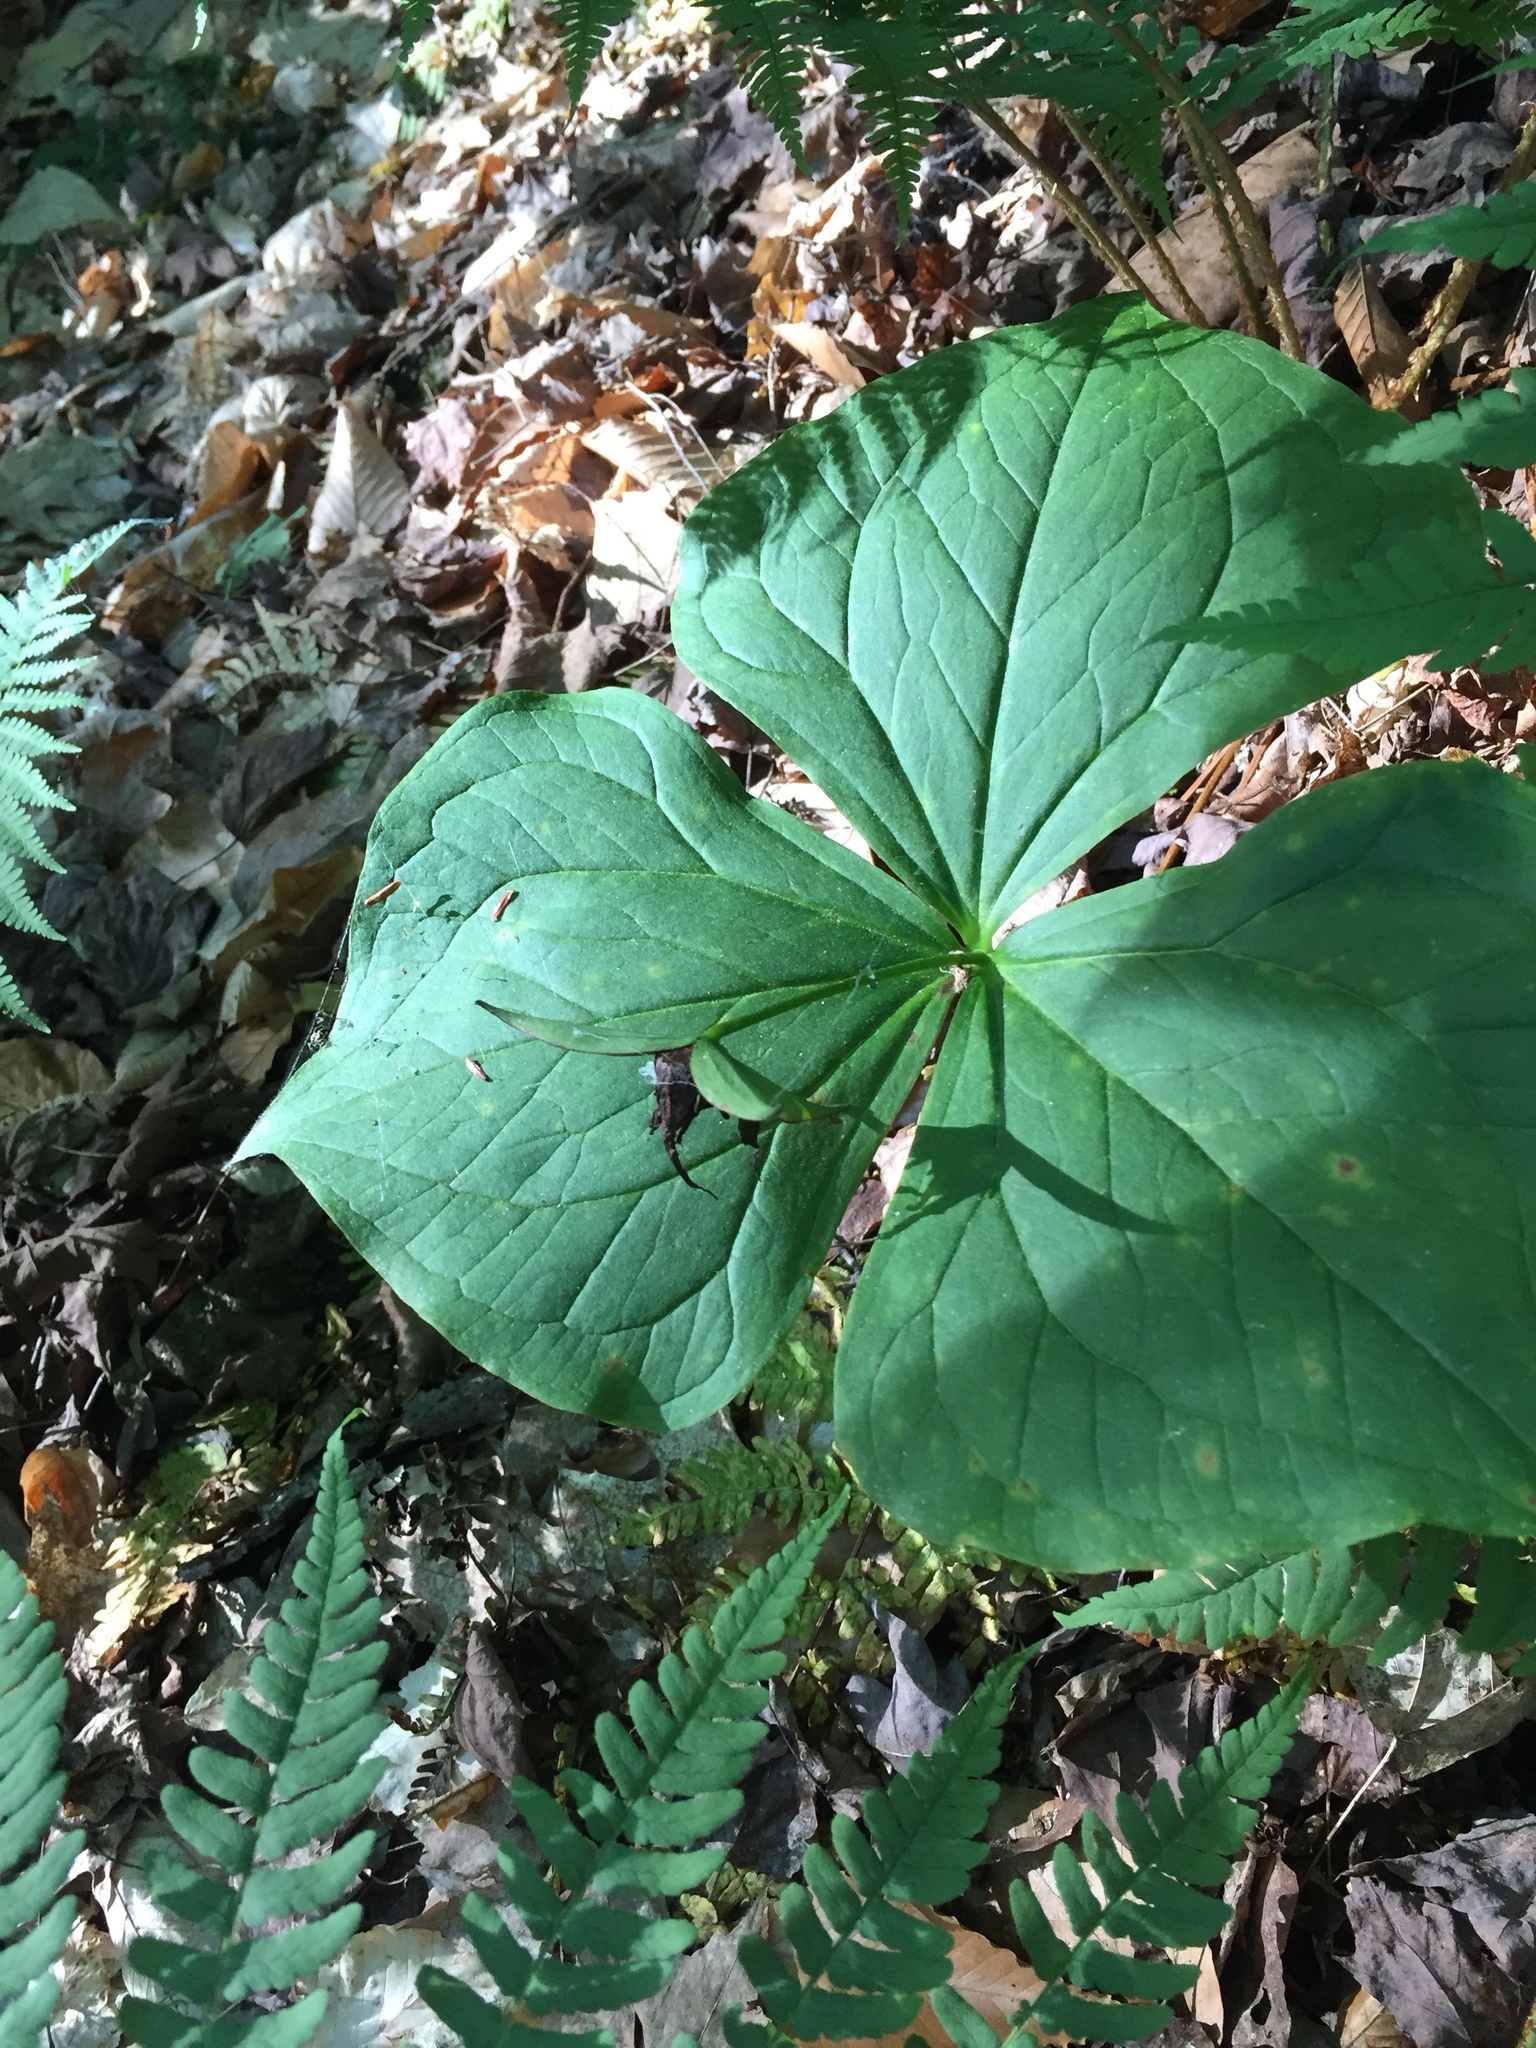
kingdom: Plantae
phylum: Tracheophyta
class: Liliopsida
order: Liliales
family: Melanthiaceae
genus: Trillium
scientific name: Trillium erectum
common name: Purple trillium
